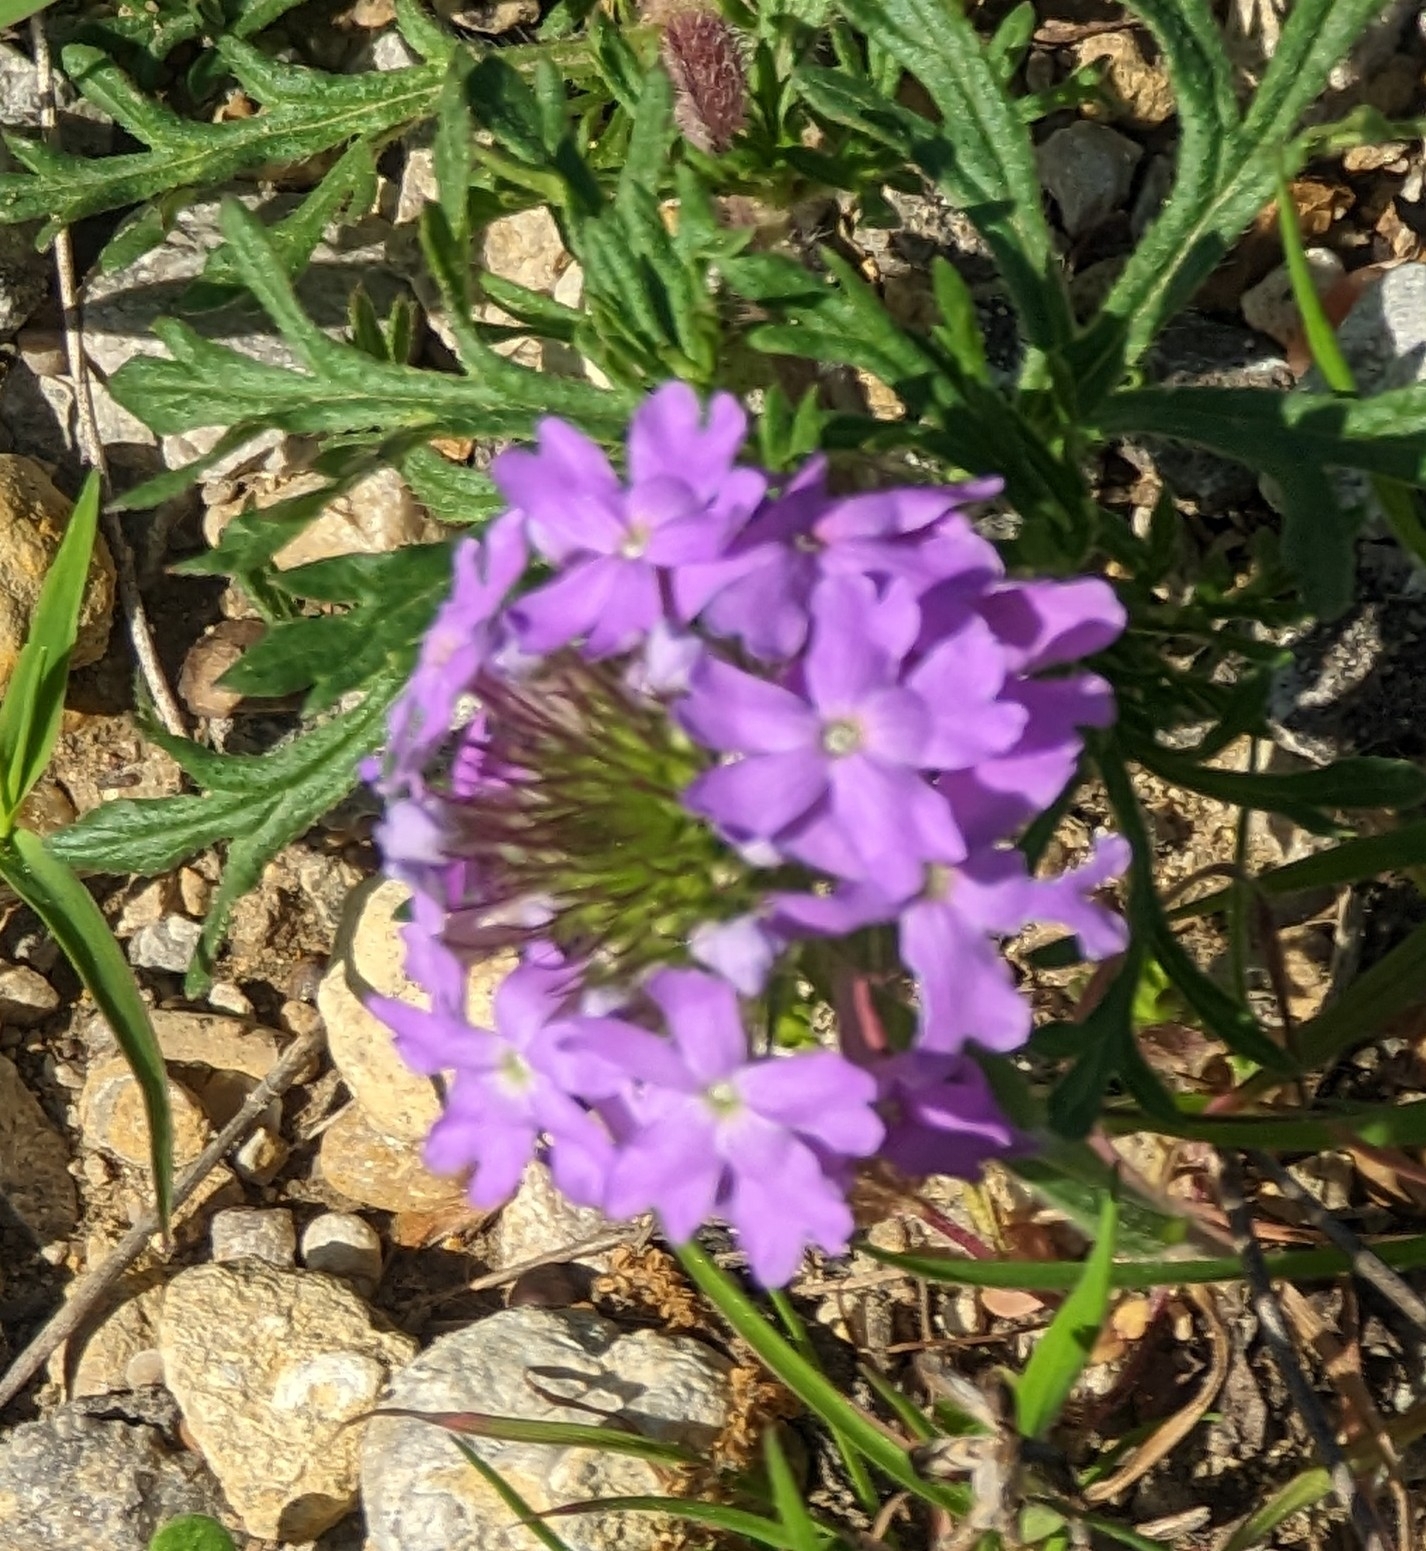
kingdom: Plantae
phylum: Tracheophyta
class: Magnoliopsida
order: Lamiales
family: Verbenaceae
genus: Verbena
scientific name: Verbena bipinnatifida
